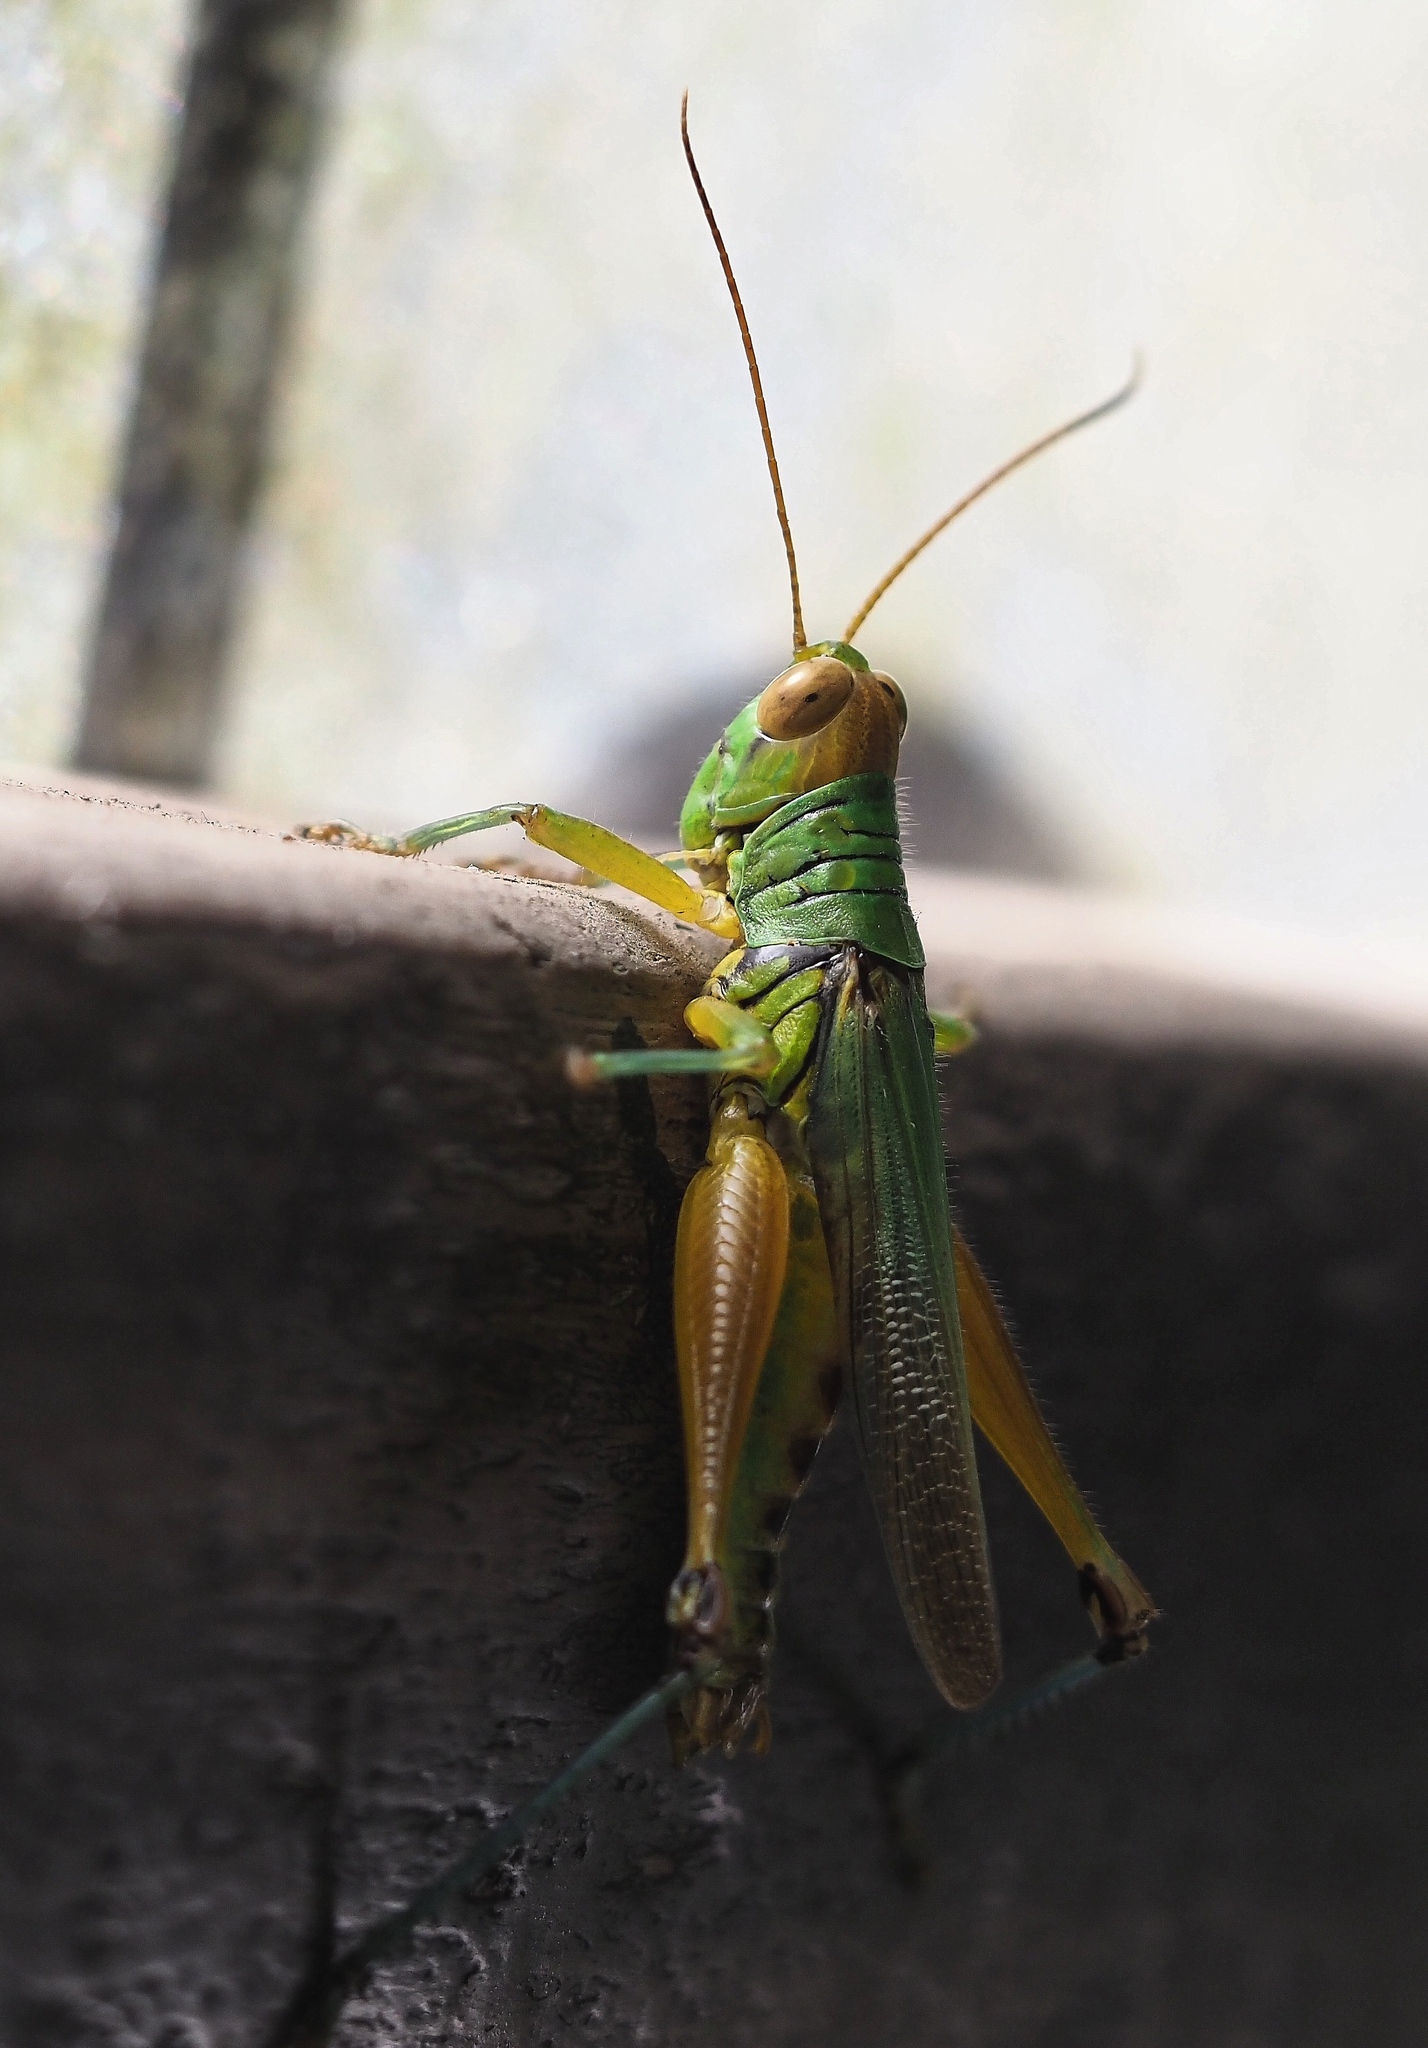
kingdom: Animalia
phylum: Arthropoda
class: Insecta
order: Orthoptera
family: Acrididae
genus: Hieroglyphus
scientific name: Hieroglyphus tonkinensis
